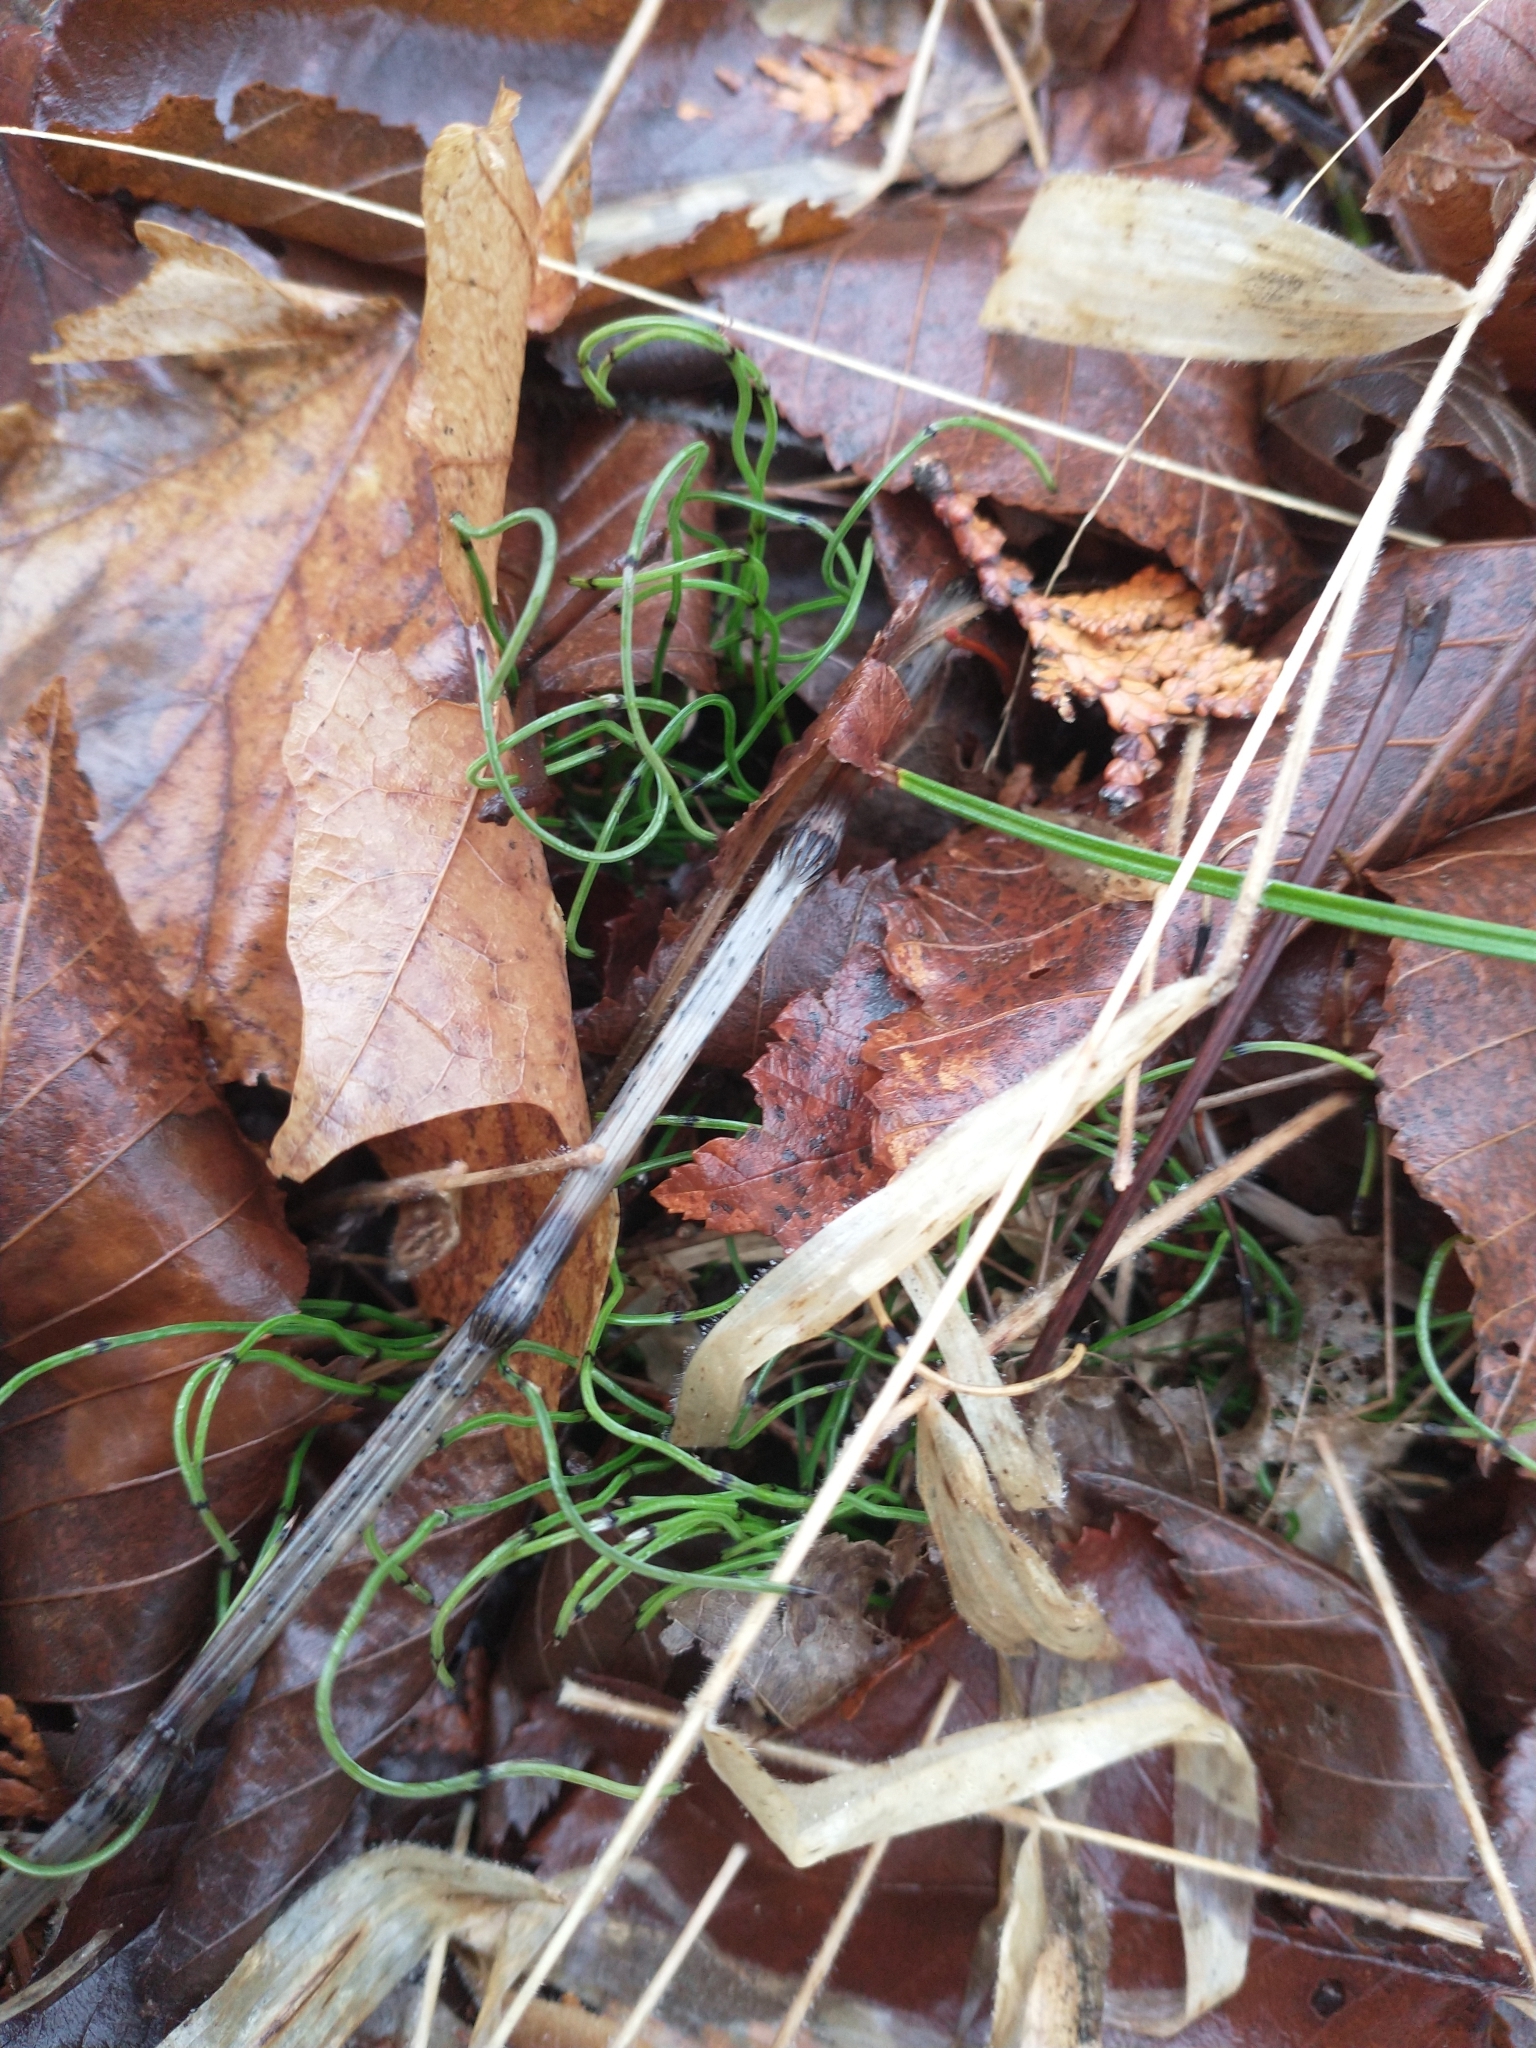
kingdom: Plantae
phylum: Tracheophyta
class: Polypodiopsida
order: Equisetales
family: Equisetaceae
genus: Equisetum
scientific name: Equisetum scirpoides
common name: Delicate horsetail
